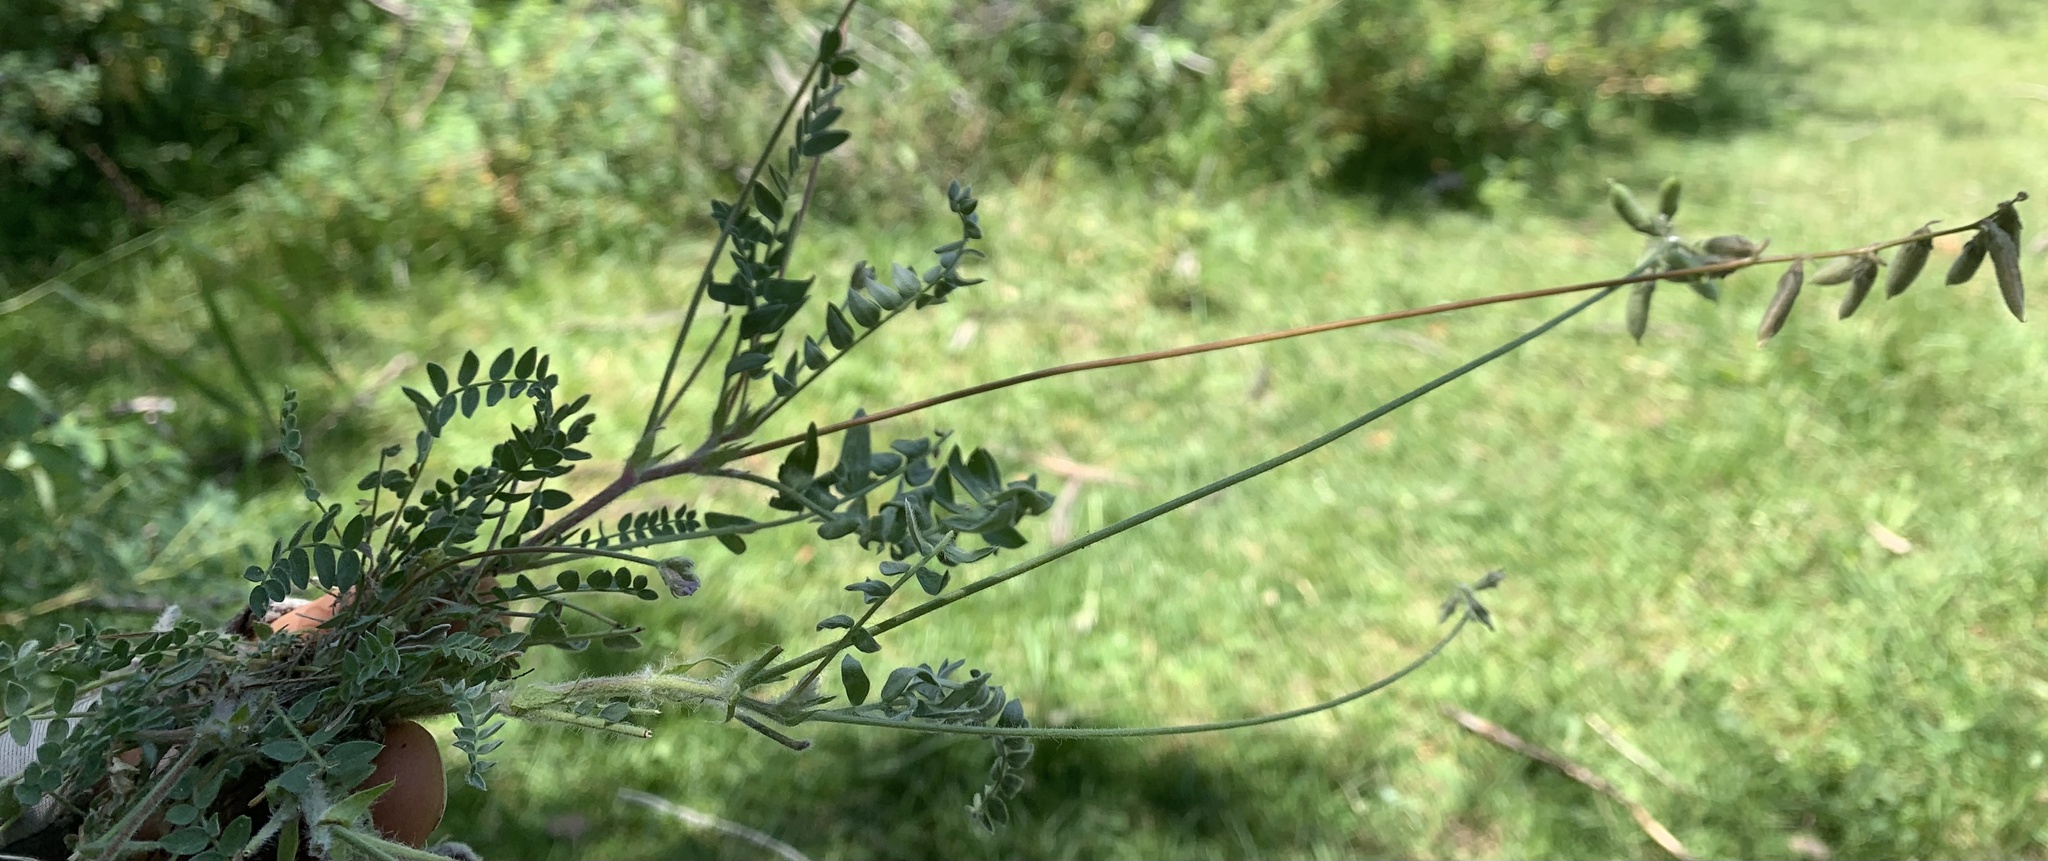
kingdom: Plantae
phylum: Tracheophyta
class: Magnoliopsida
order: Fabales
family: Fabaceae
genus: Oxytropis
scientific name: Oxytropis deflexa
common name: Stemmed oxytrope
